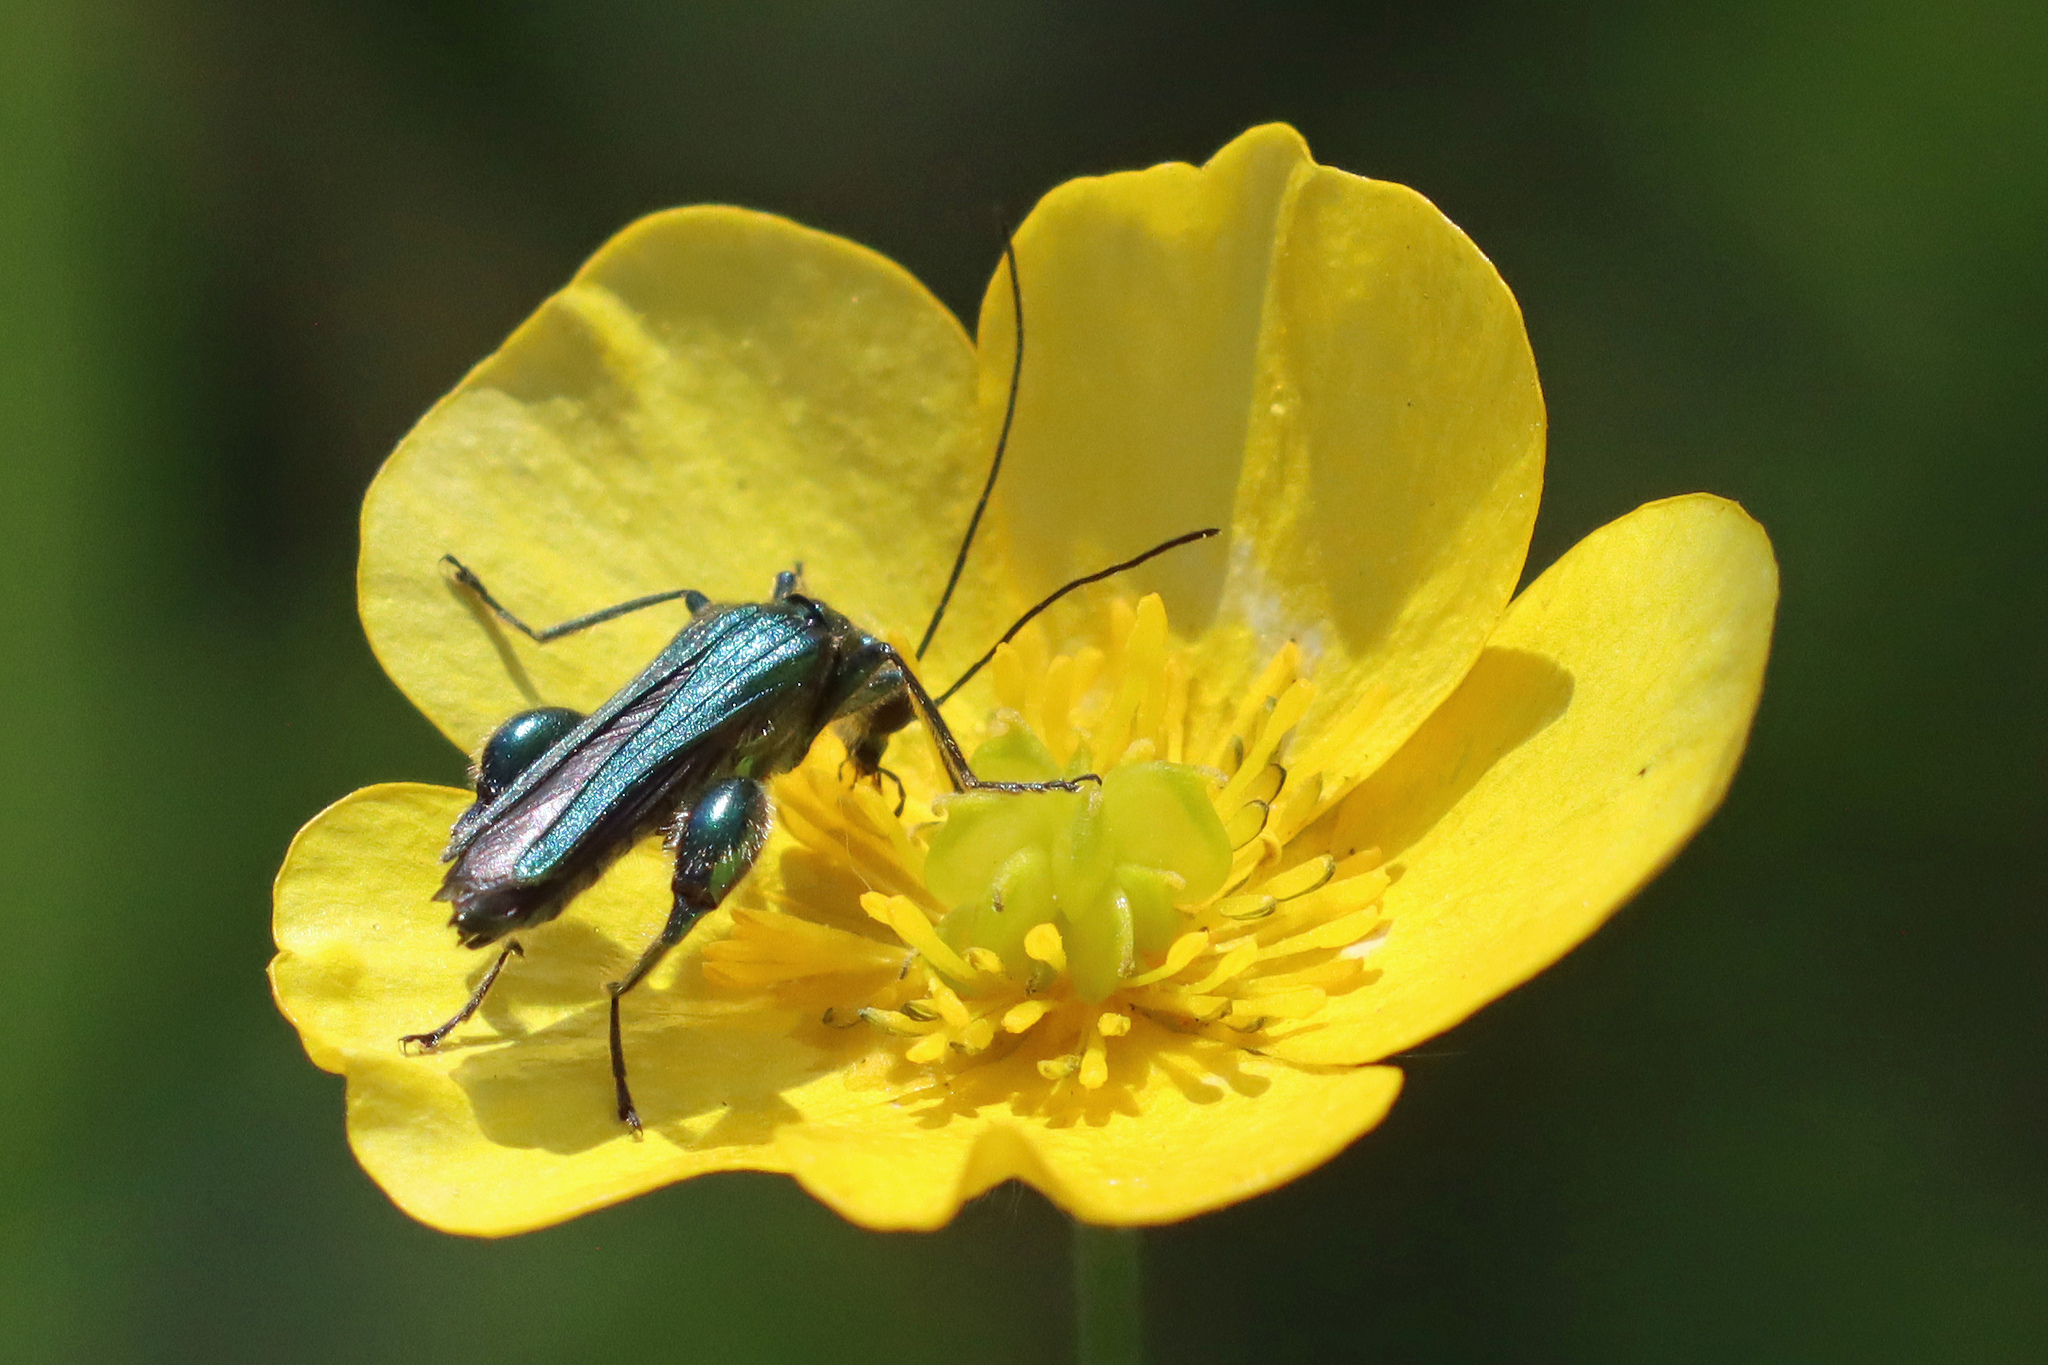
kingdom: Animalia
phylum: Arthropoda
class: Insecta
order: Coleoptera
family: Oedemeridae
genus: Oedemera
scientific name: Oedemera nobilis
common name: Swollen-thighed beetle
